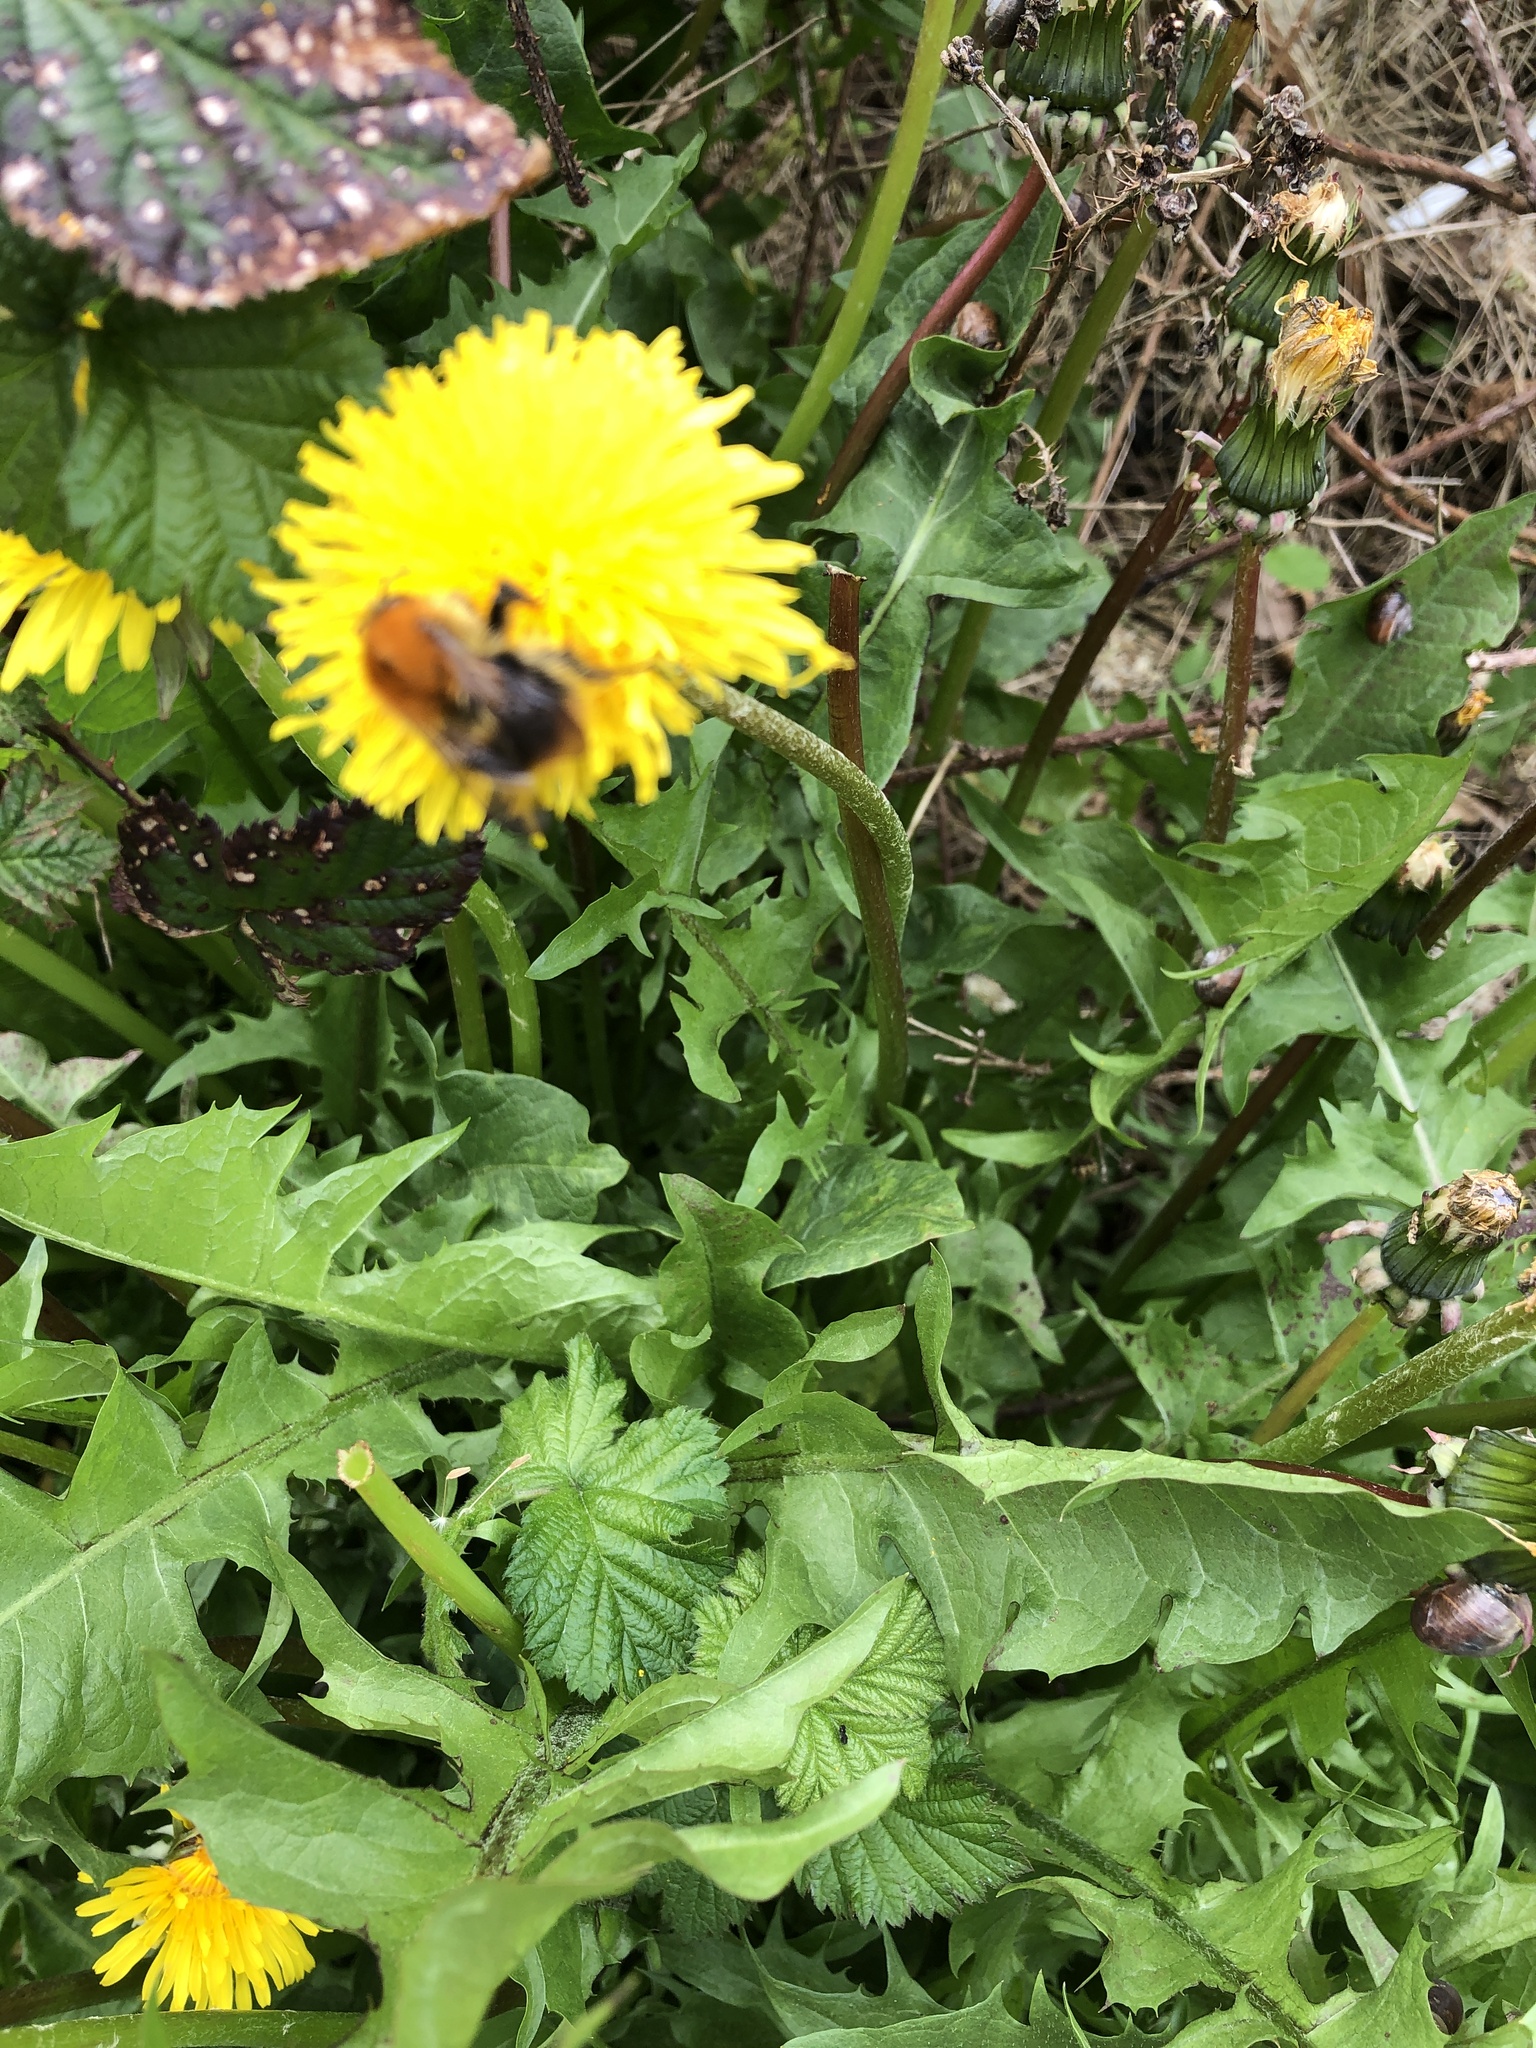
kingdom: Animalia
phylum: Arthropoda
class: Insecta
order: Hymenoptera
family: Apidae
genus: Bombus
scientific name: Bombus pascuorum
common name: Common carder bee
